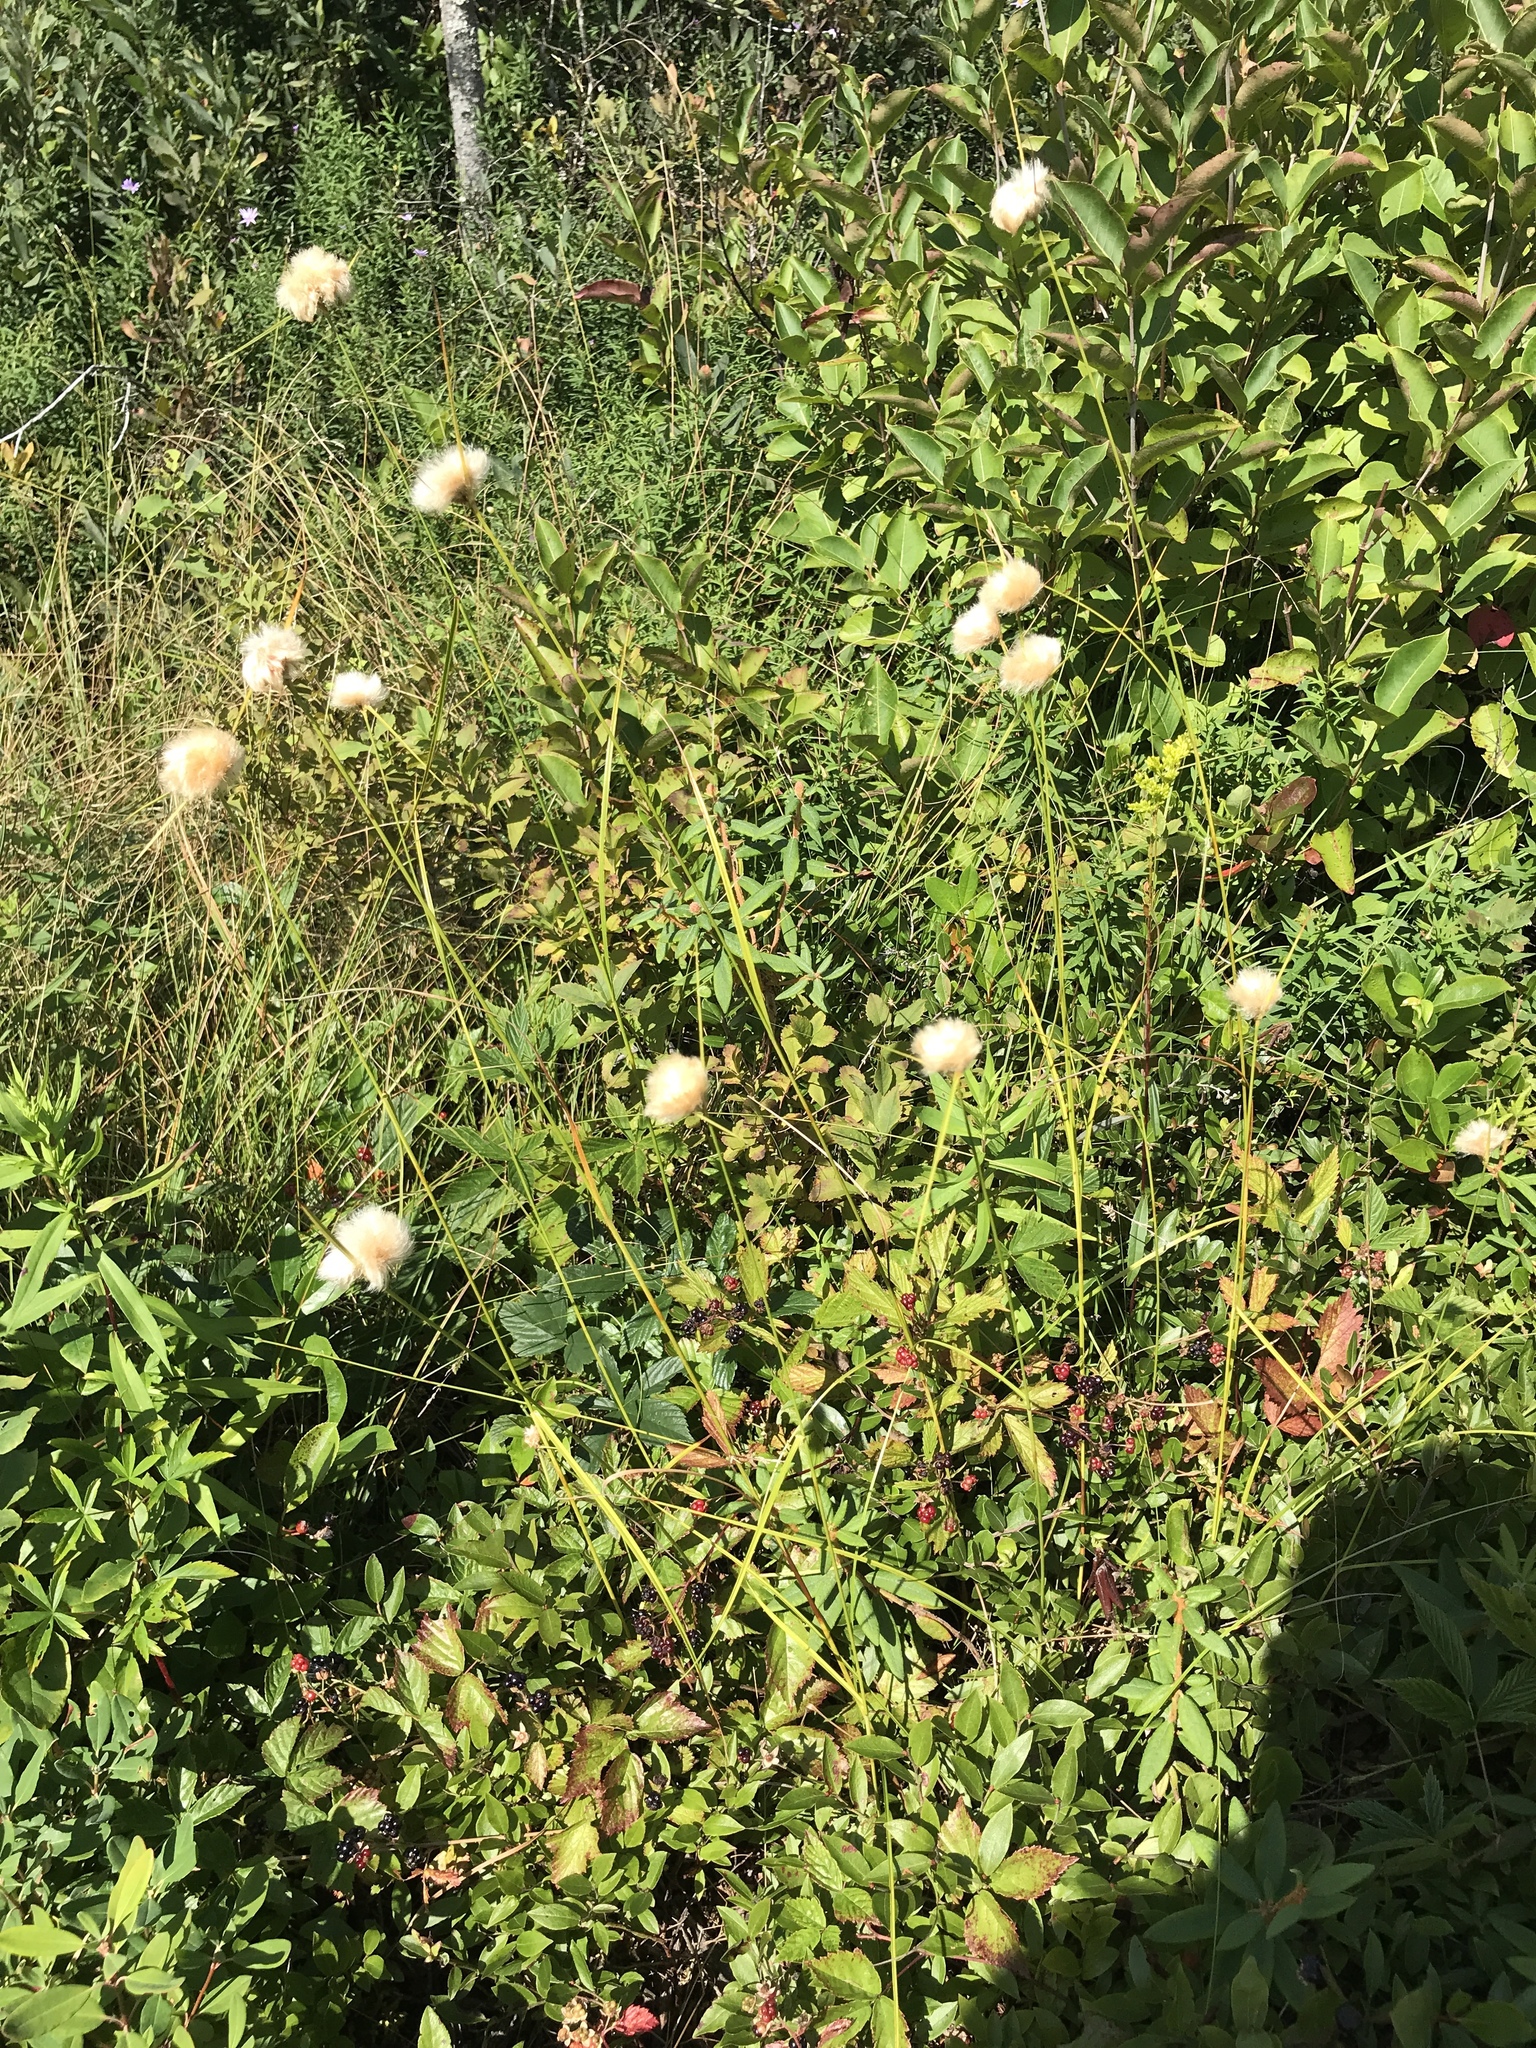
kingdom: Plantae
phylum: Tracheophyta
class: Liliopsida
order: Poales
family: Cyperaceae
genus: Eriophorum
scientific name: Eriophorum virginicum
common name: Tawny cottongrass
